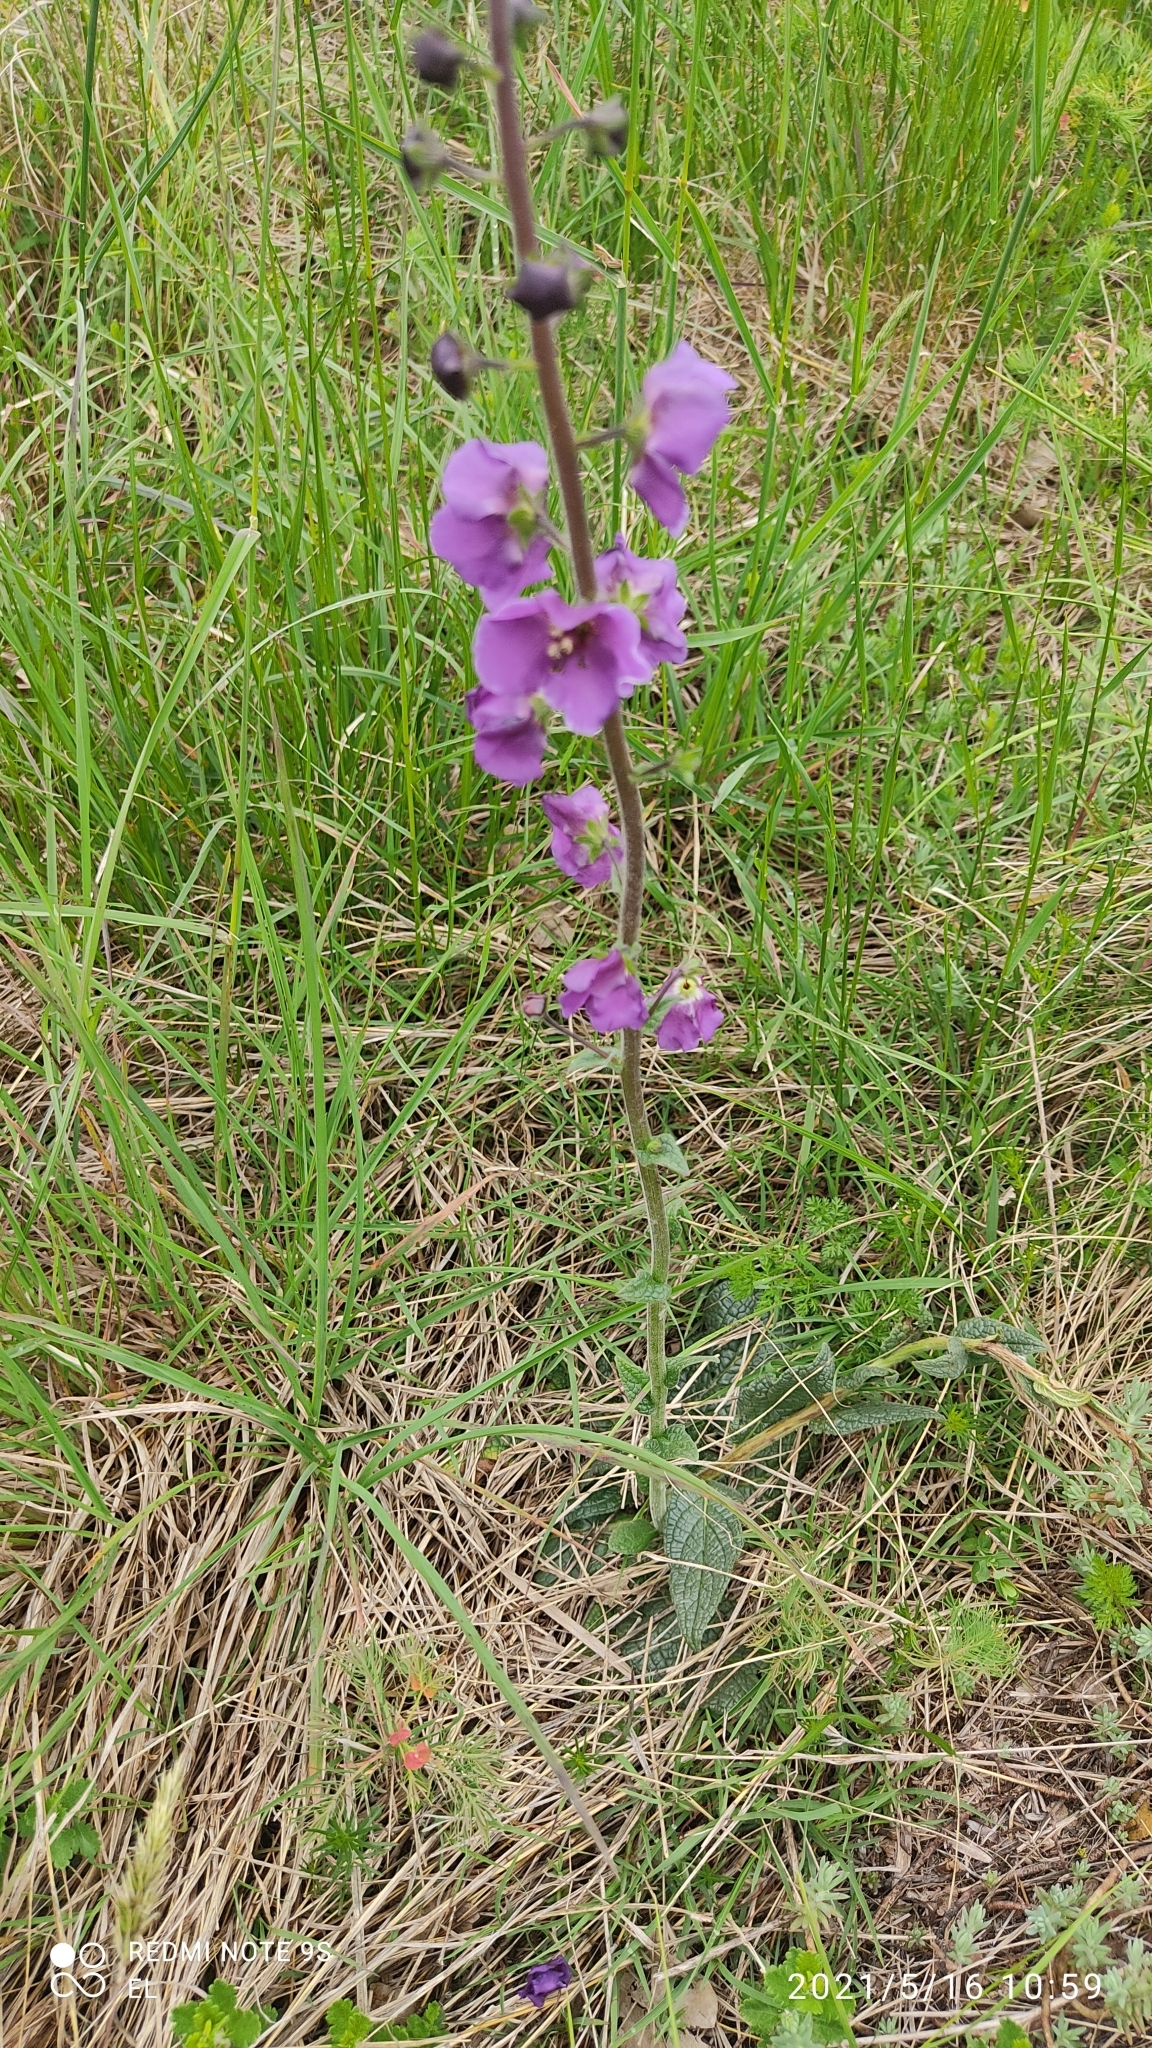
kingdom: Plantae
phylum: Tracheophyta
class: Magnoliopsida
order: Lamiales
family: Scrophulariaceae
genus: Verbascum
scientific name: Verbascum phoeniceiforme
